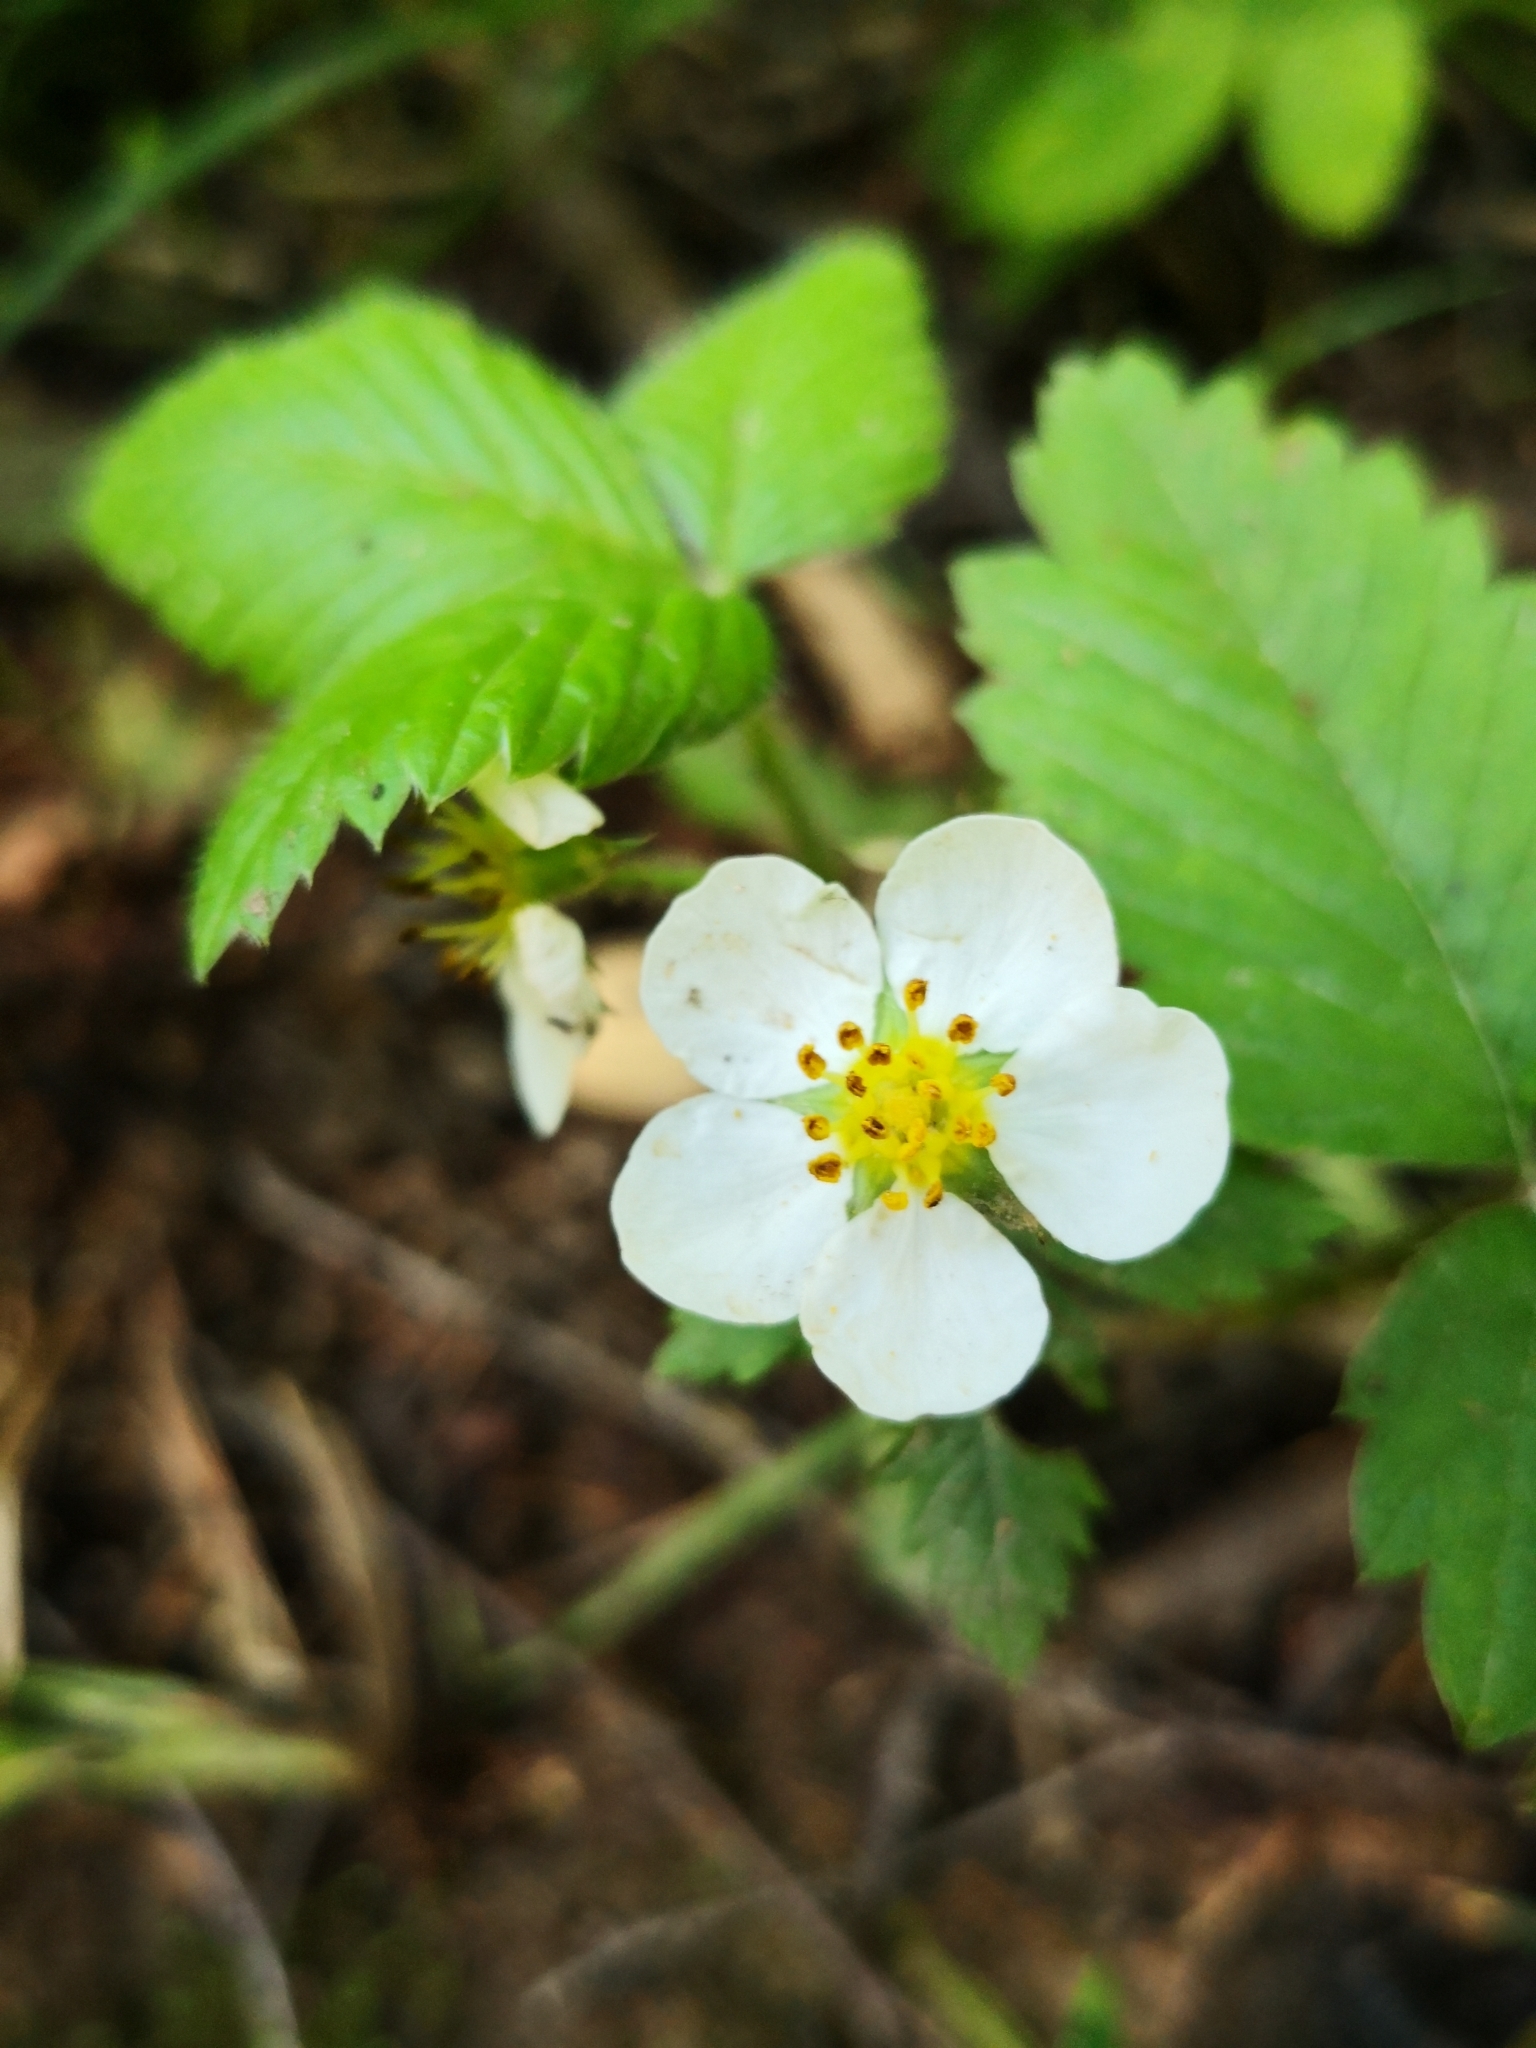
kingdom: Plantae
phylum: Tracheophyta
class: Magnoliopsida
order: Rosales
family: Rosaceae
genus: Fragaria
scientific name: Fragaria vesca
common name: Wild strawberry
